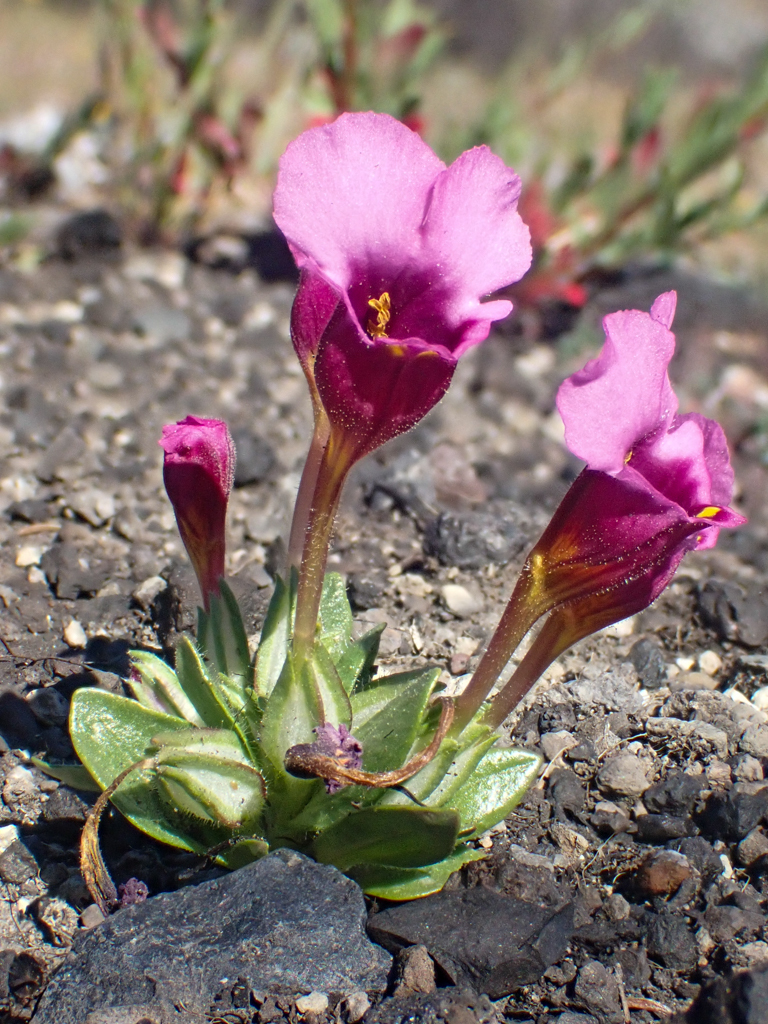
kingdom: Plantae
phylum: Tracheophyta
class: Magnoliopsida
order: Lamiales
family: Phrymaceae
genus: Diplacus
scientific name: Diplacus douglasii
